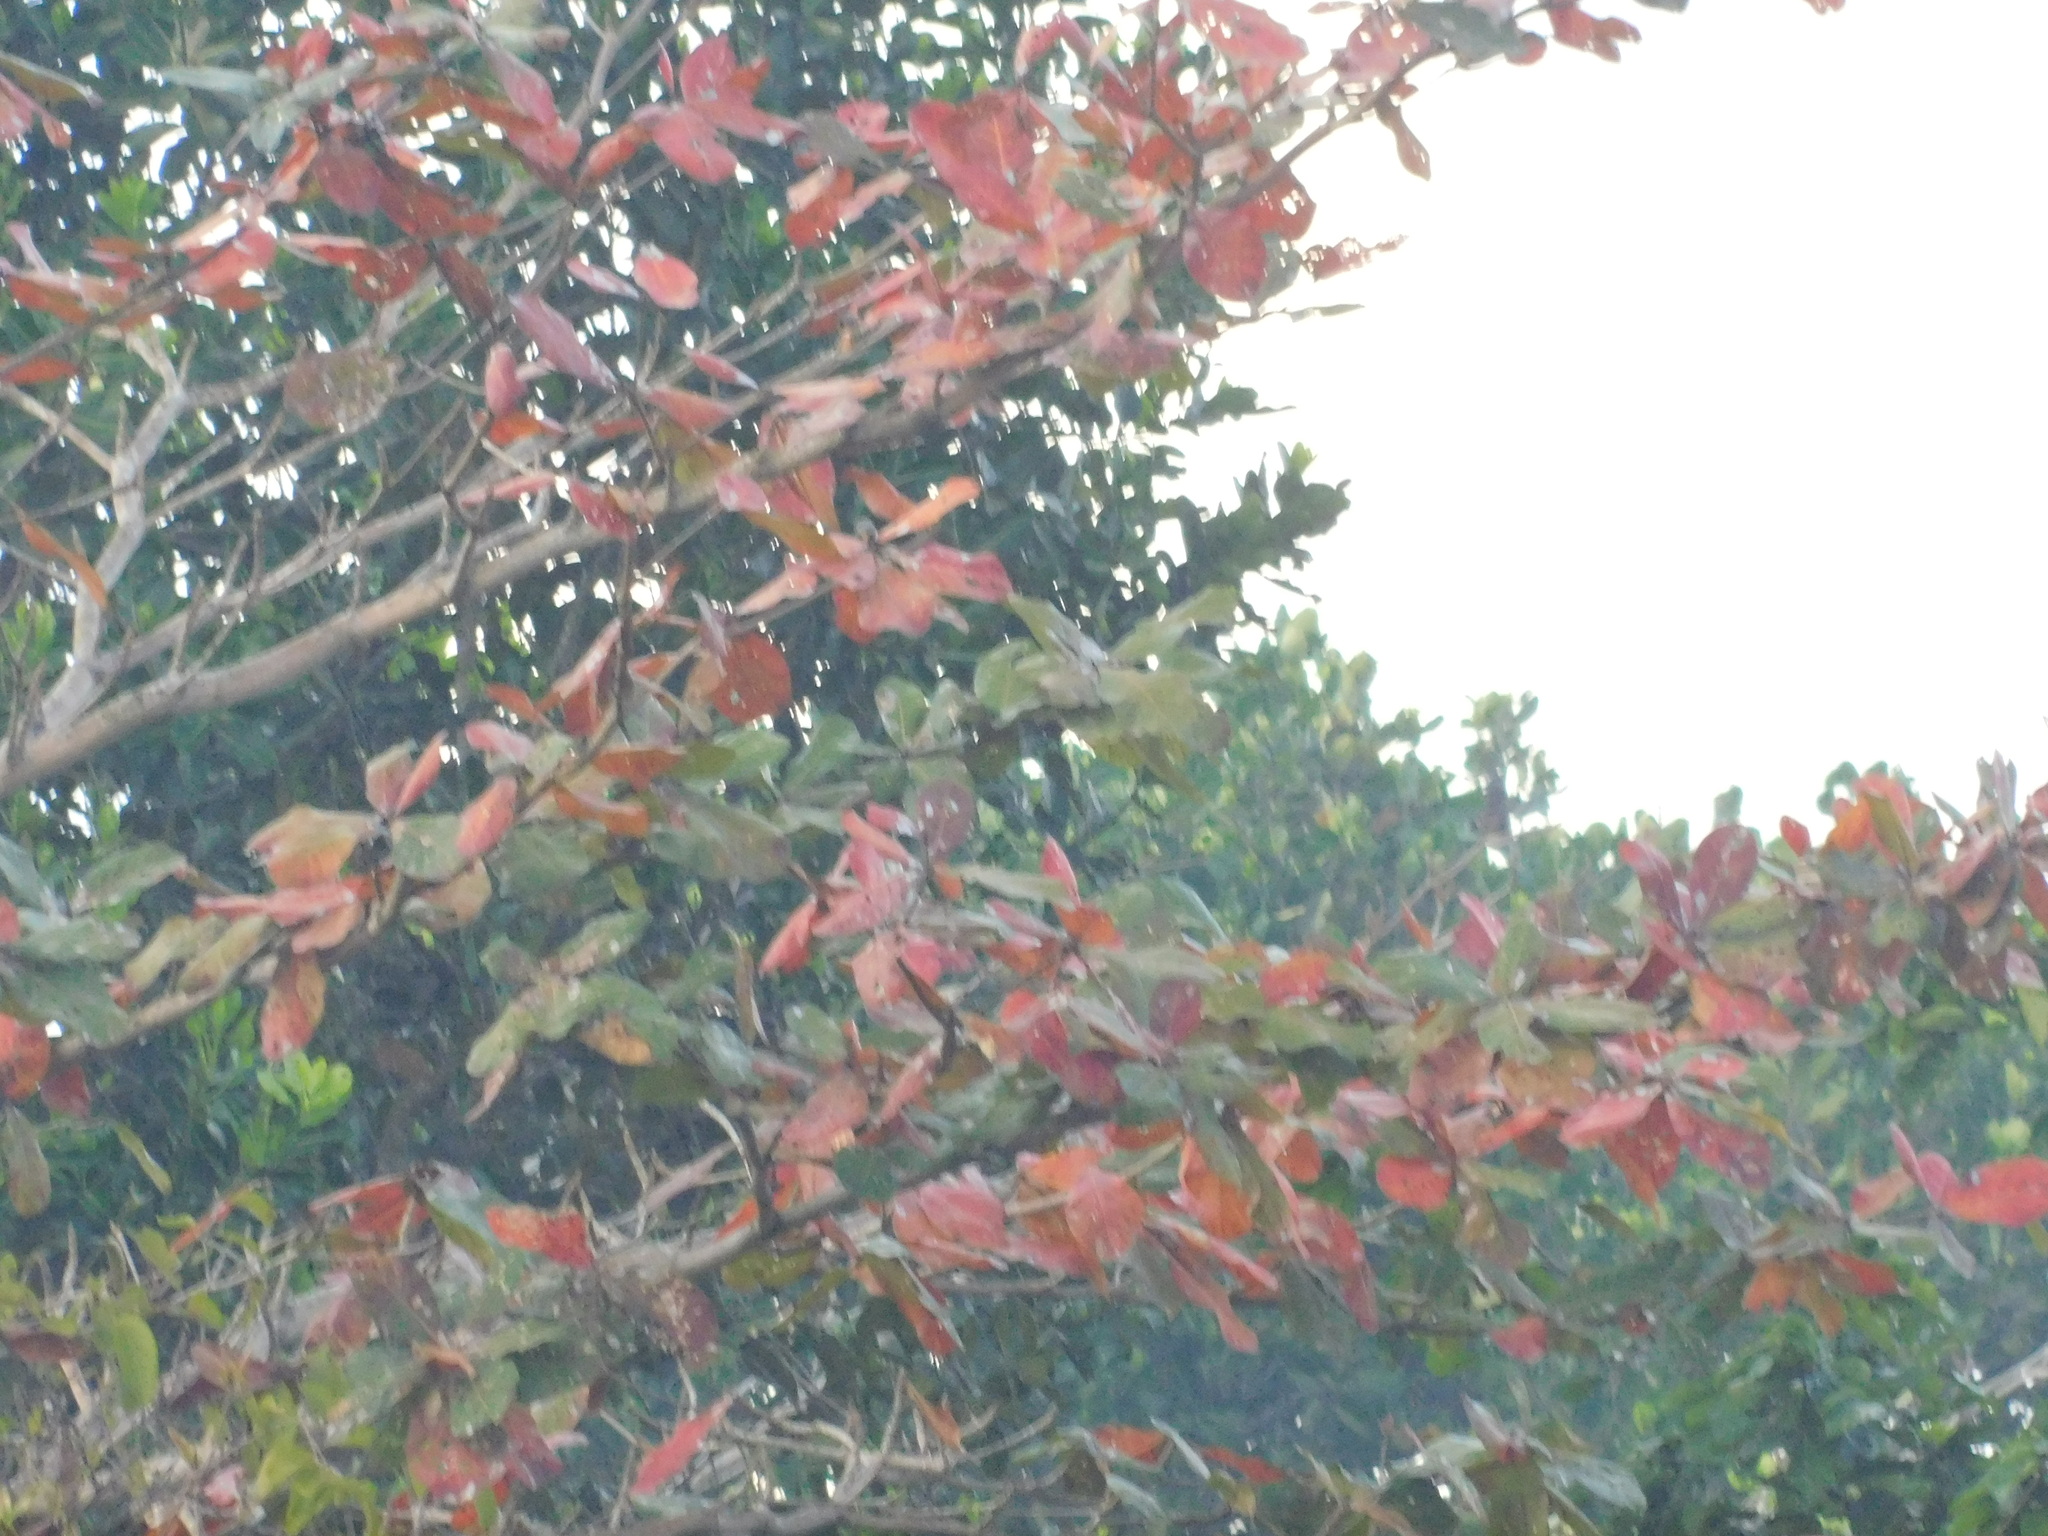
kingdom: Plantae
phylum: Tracheophyta
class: Magnoliopsida
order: Myrtales
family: Combretaceae
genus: Terminalia
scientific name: Terminalia catappa
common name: Tropical almond
